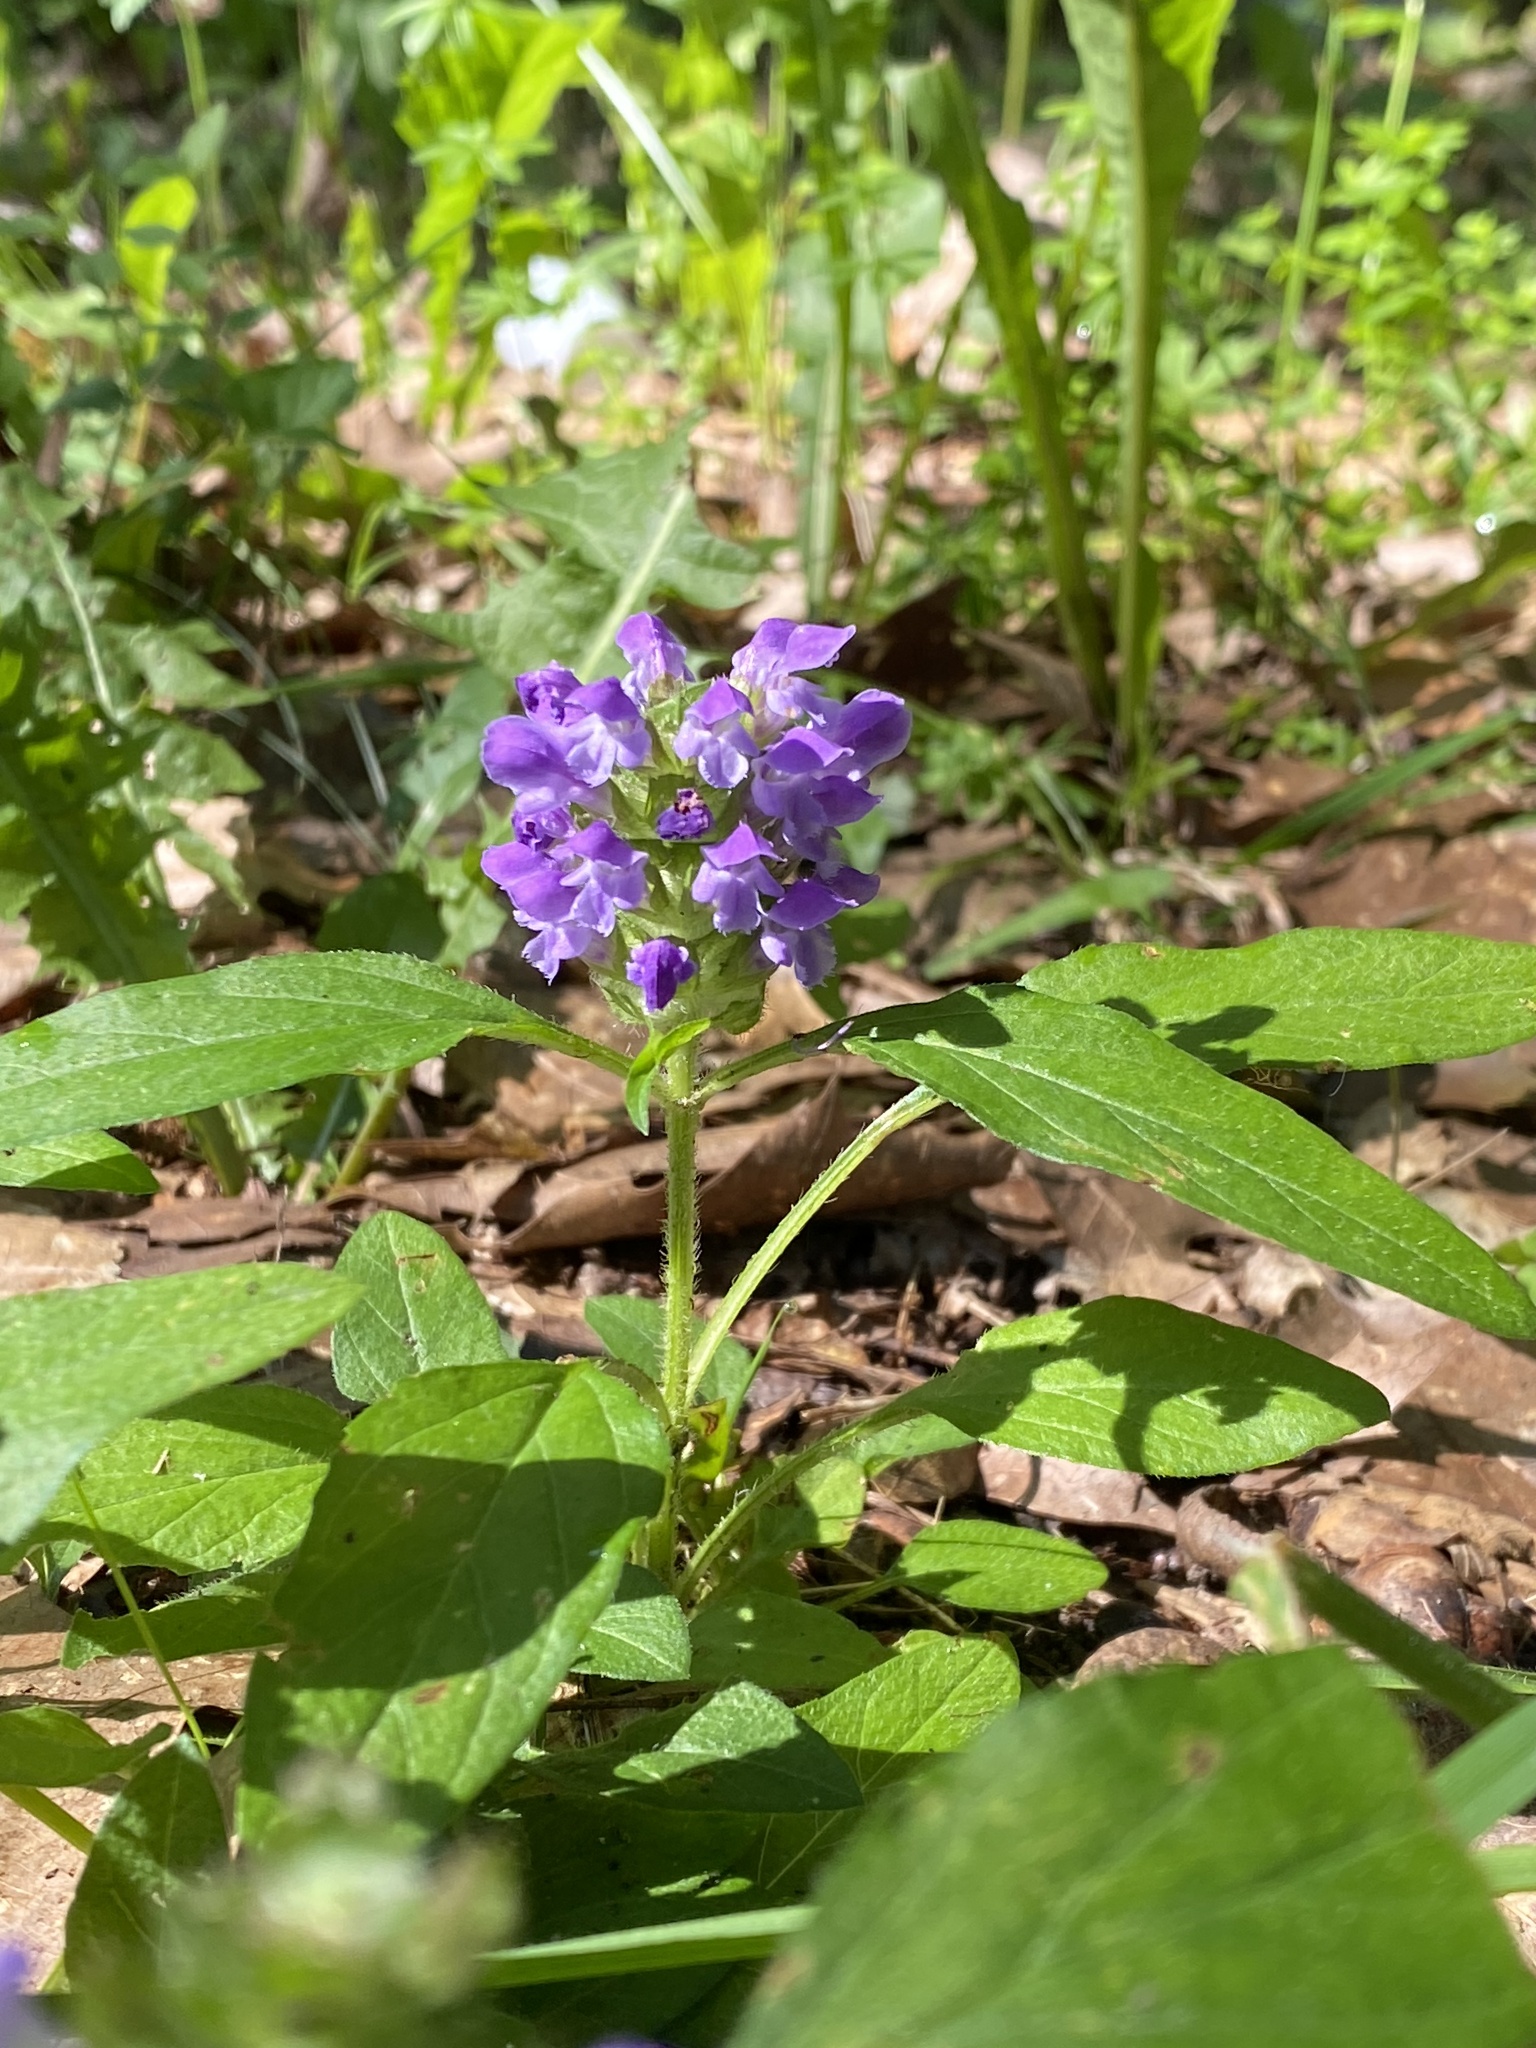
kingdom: Plantae
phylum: Tracheophyta
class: Magnoliopsida
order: Lamiales
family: Lamiaceae
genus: Prunella
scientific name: Prunella vulgaris
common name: Heal-all
